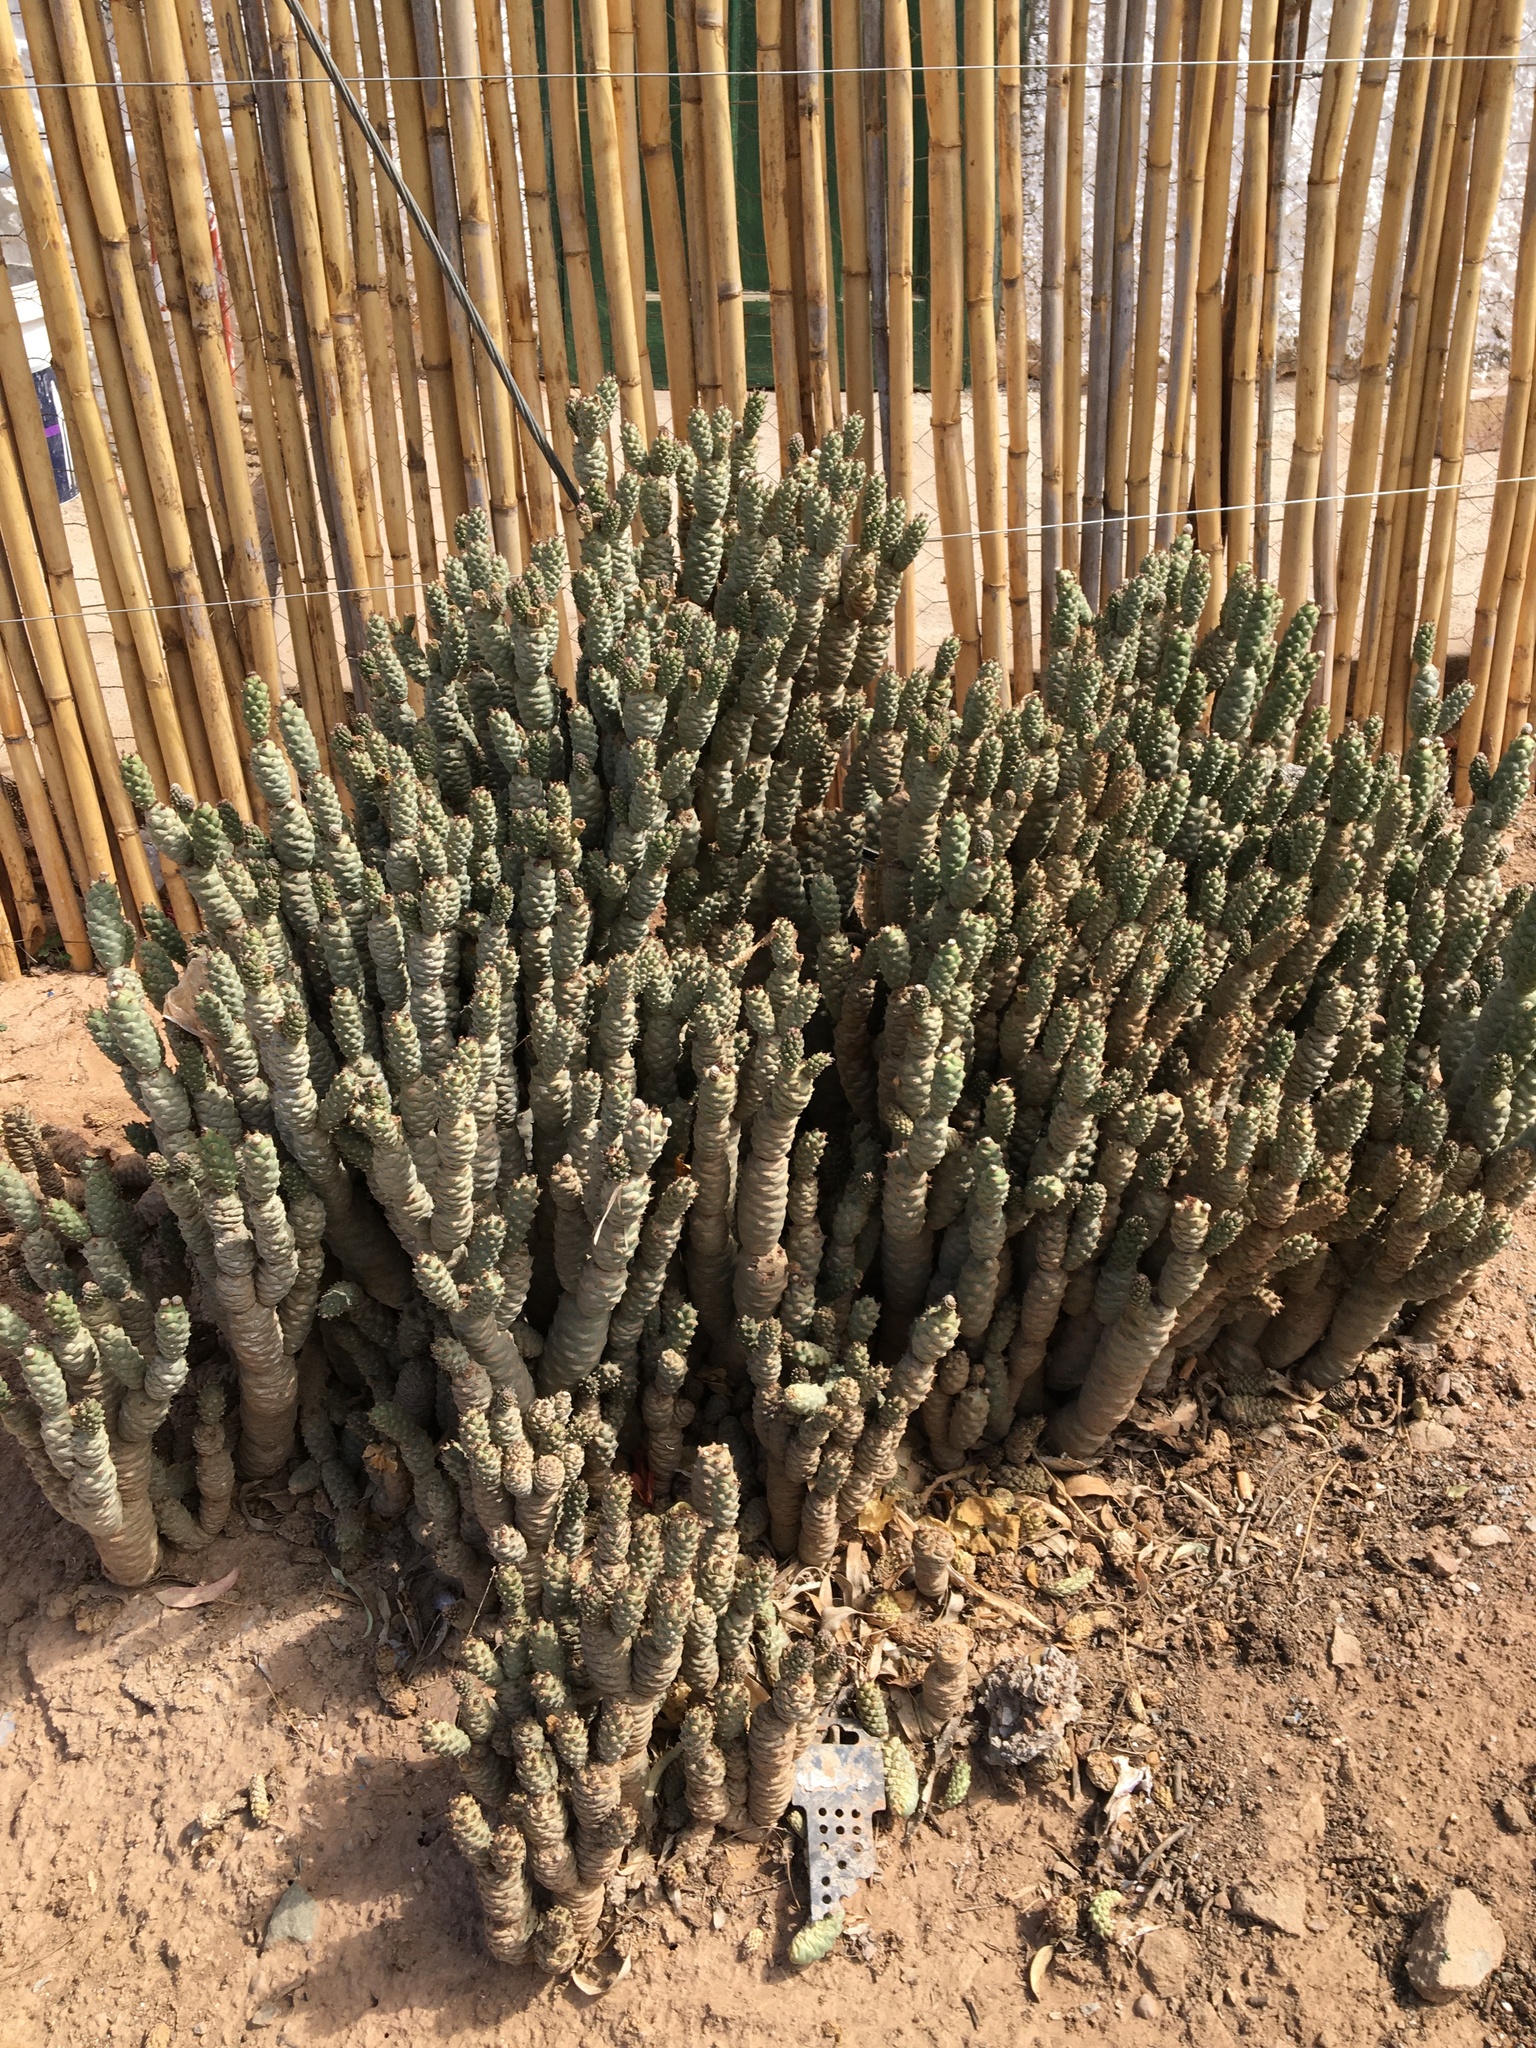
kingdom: Plantae
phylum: Tracheophyta
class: Magnoliopsida
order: Caryophyllales
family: Cactaceae
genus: Tephrocactus
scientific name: Tephrocactus
